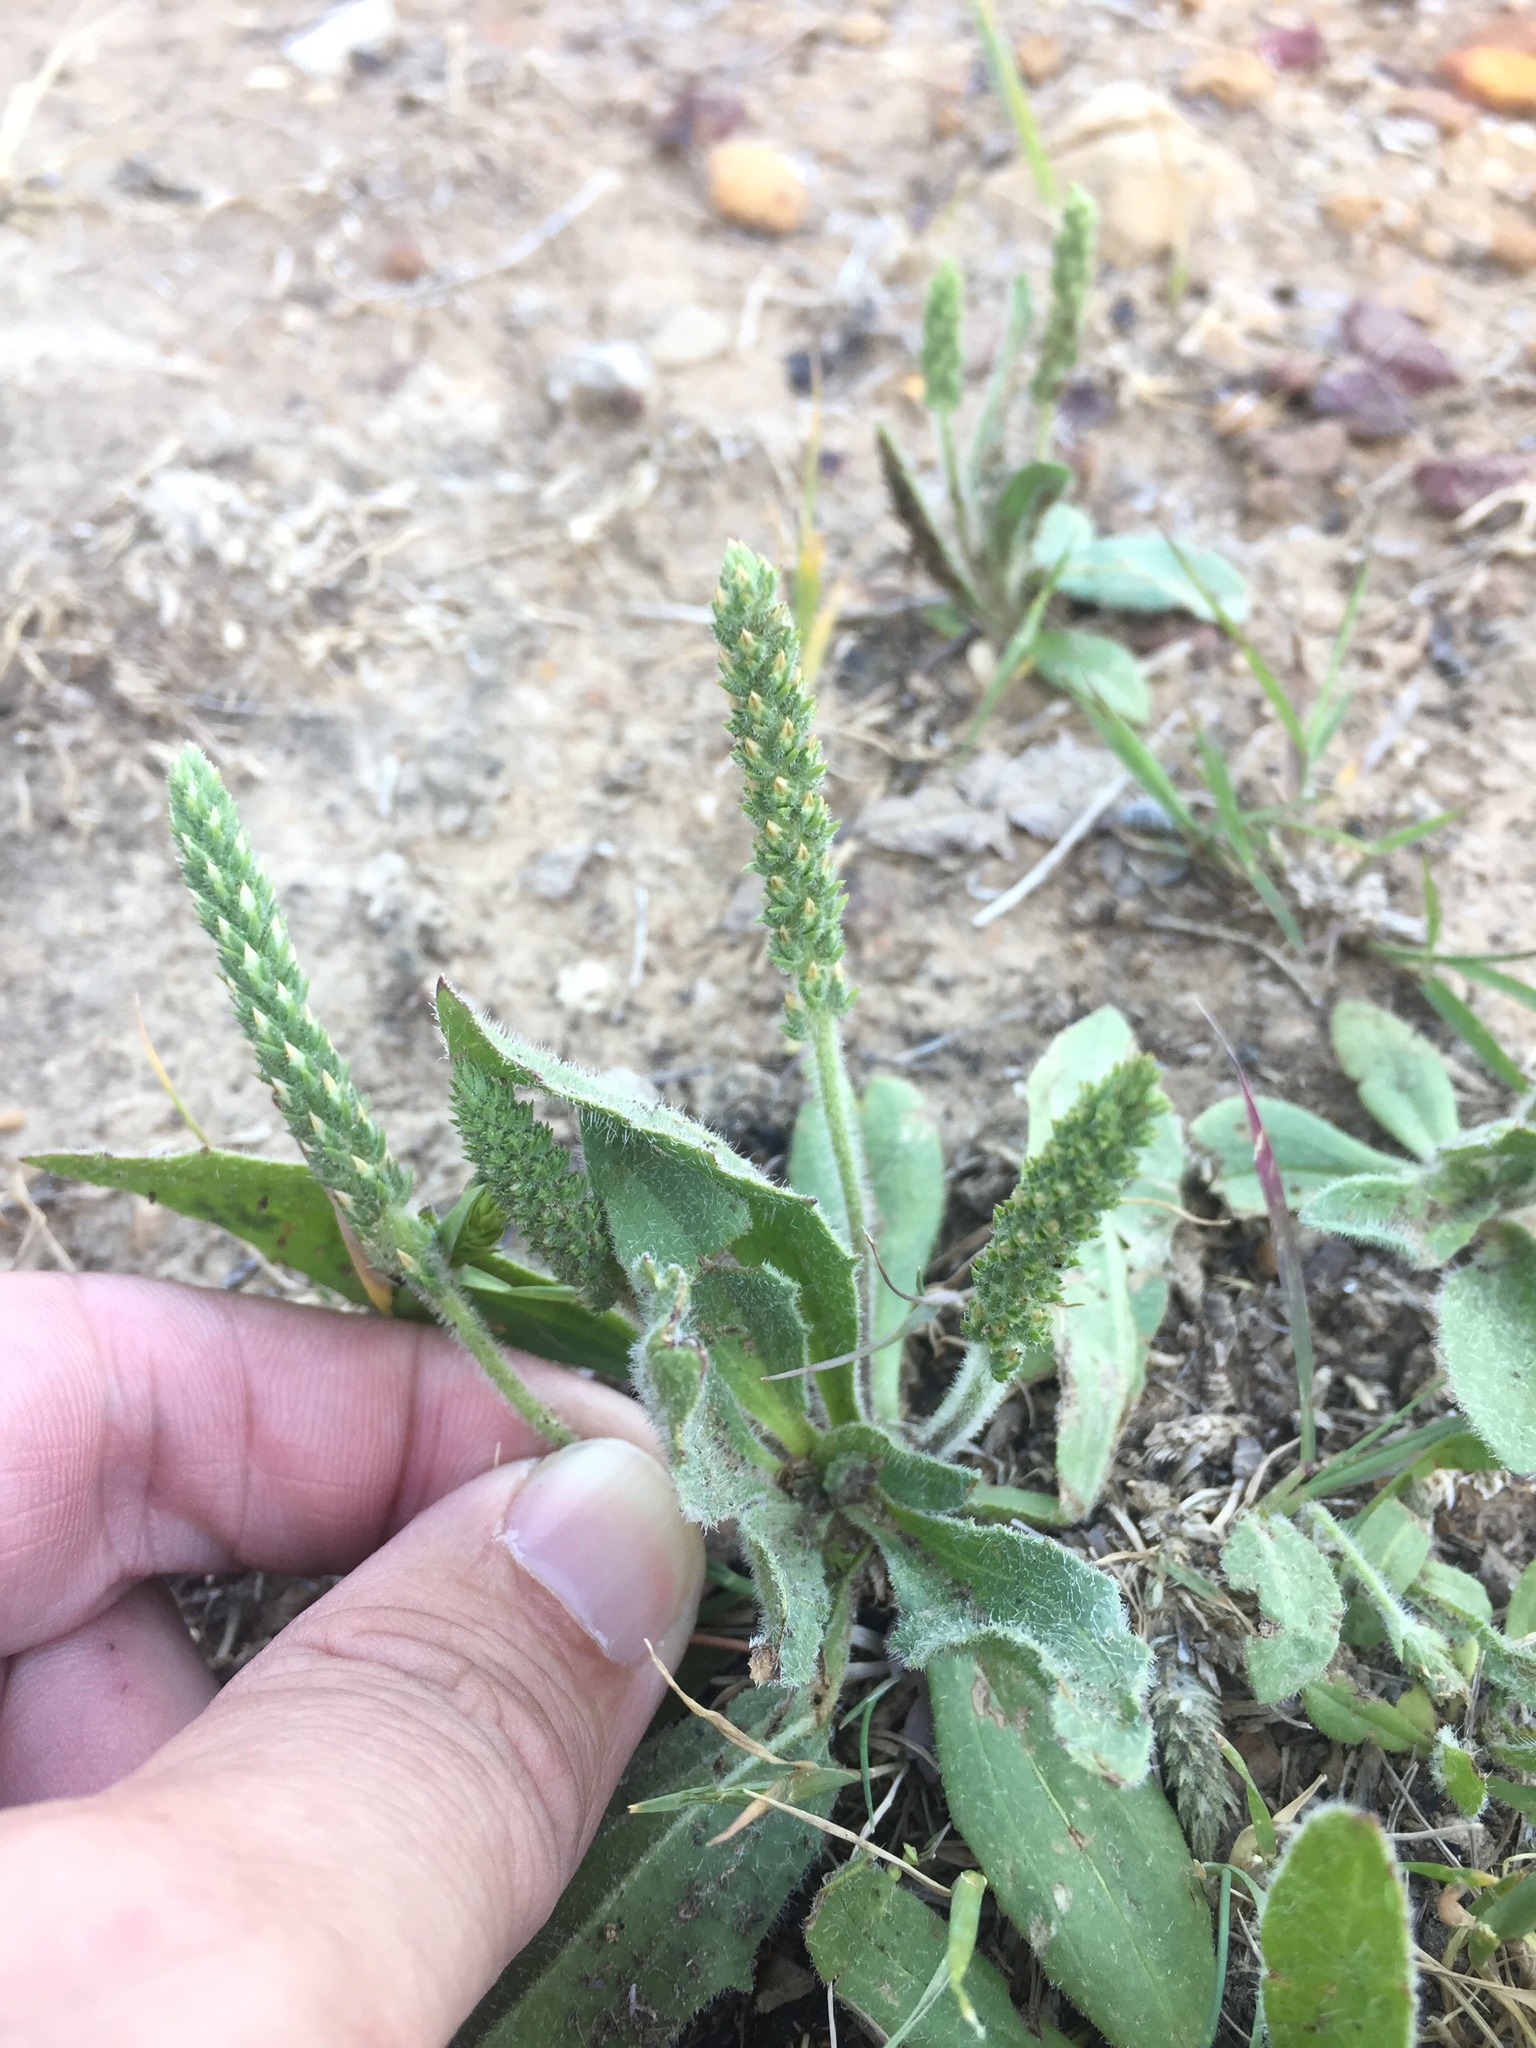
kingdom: Plantae
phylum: Tracheophyta
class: Magnoliopsida
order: Lamiales
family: Plantaginaceae
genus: Plantago
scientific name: Plantago virginica
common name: Hoary plantain
